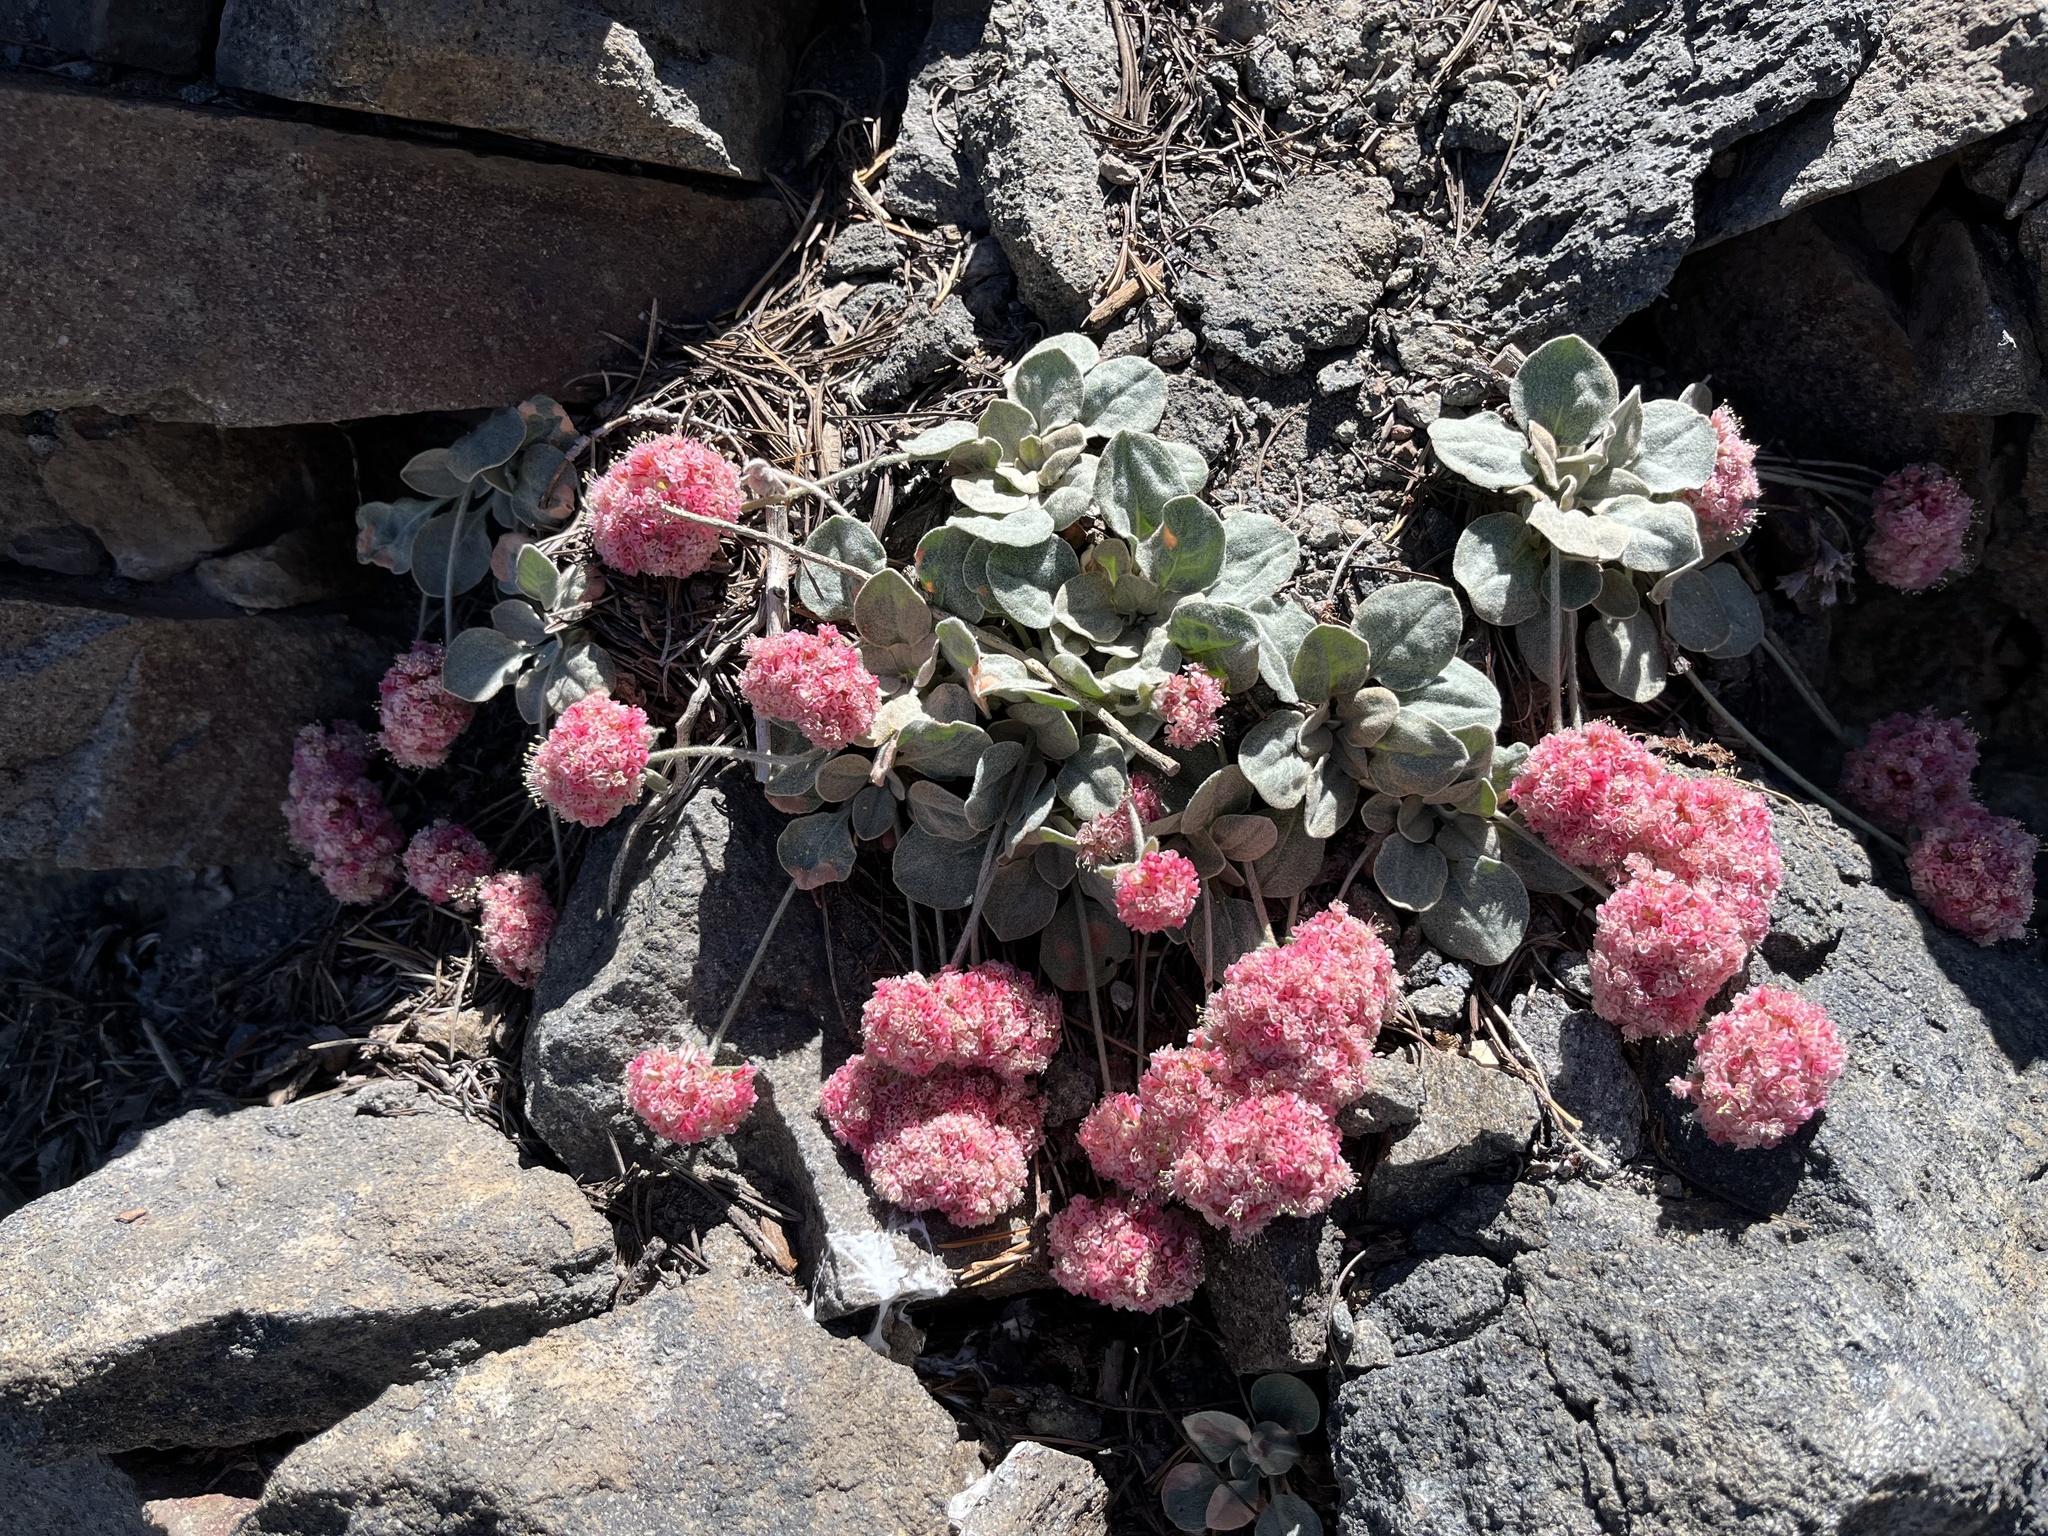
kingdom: Plantae
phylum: Tracheophyta
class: Magnoliopsida
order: Caryophyllales
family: Polygonaceae
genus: Eriogonum
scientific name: Eriogonum lobbii
